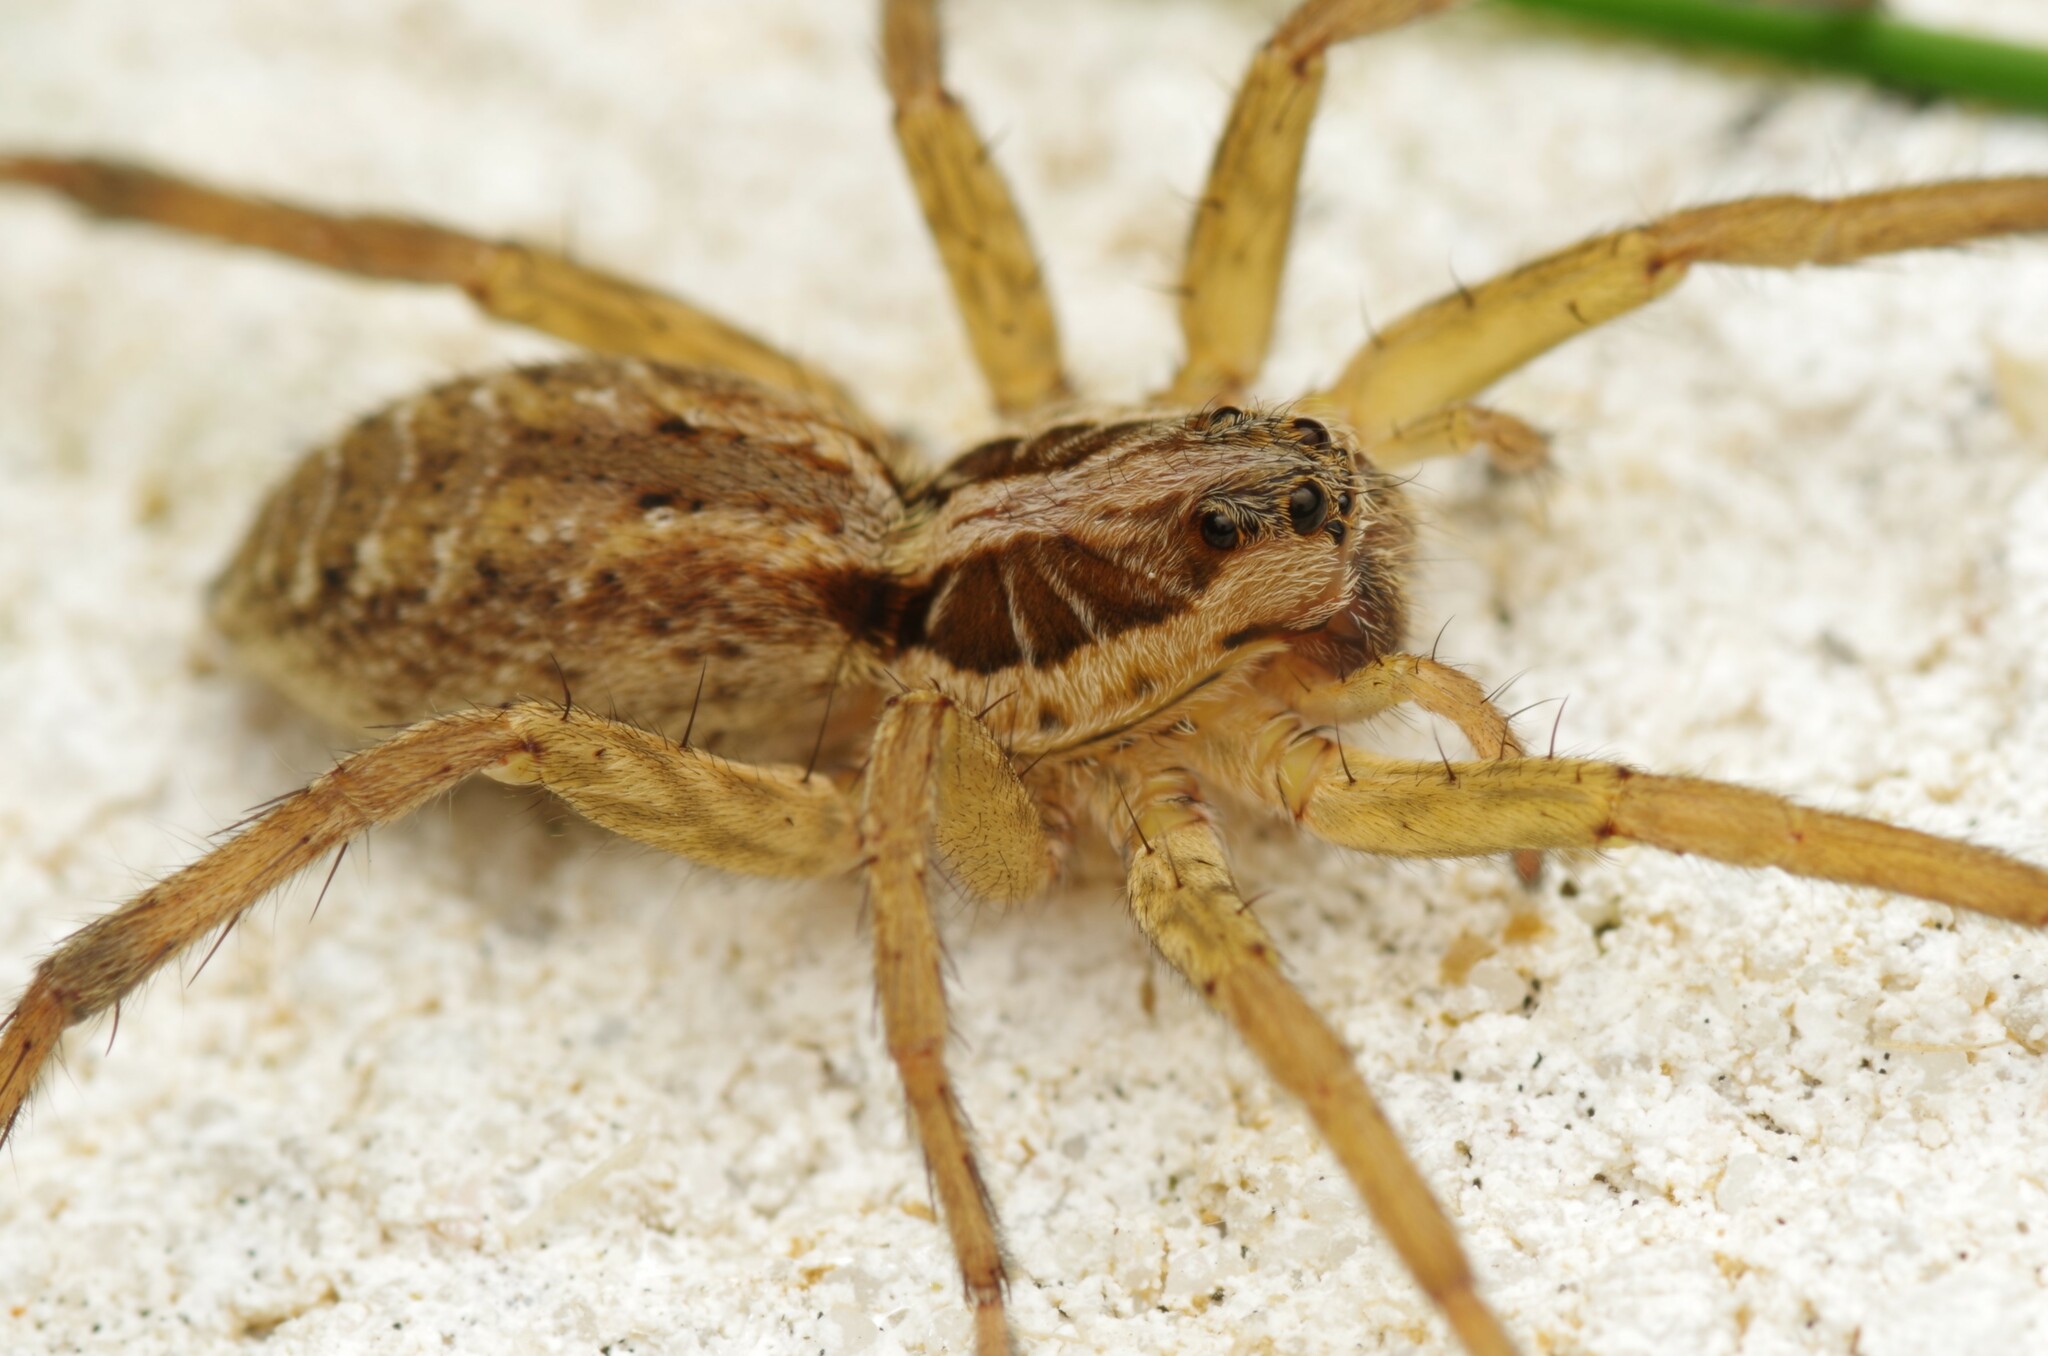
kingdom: Animalia
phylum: Arthropoda
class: Arachnida
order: Araneae
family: Lycosidae
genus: Hogna
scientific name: Hogna radiata
